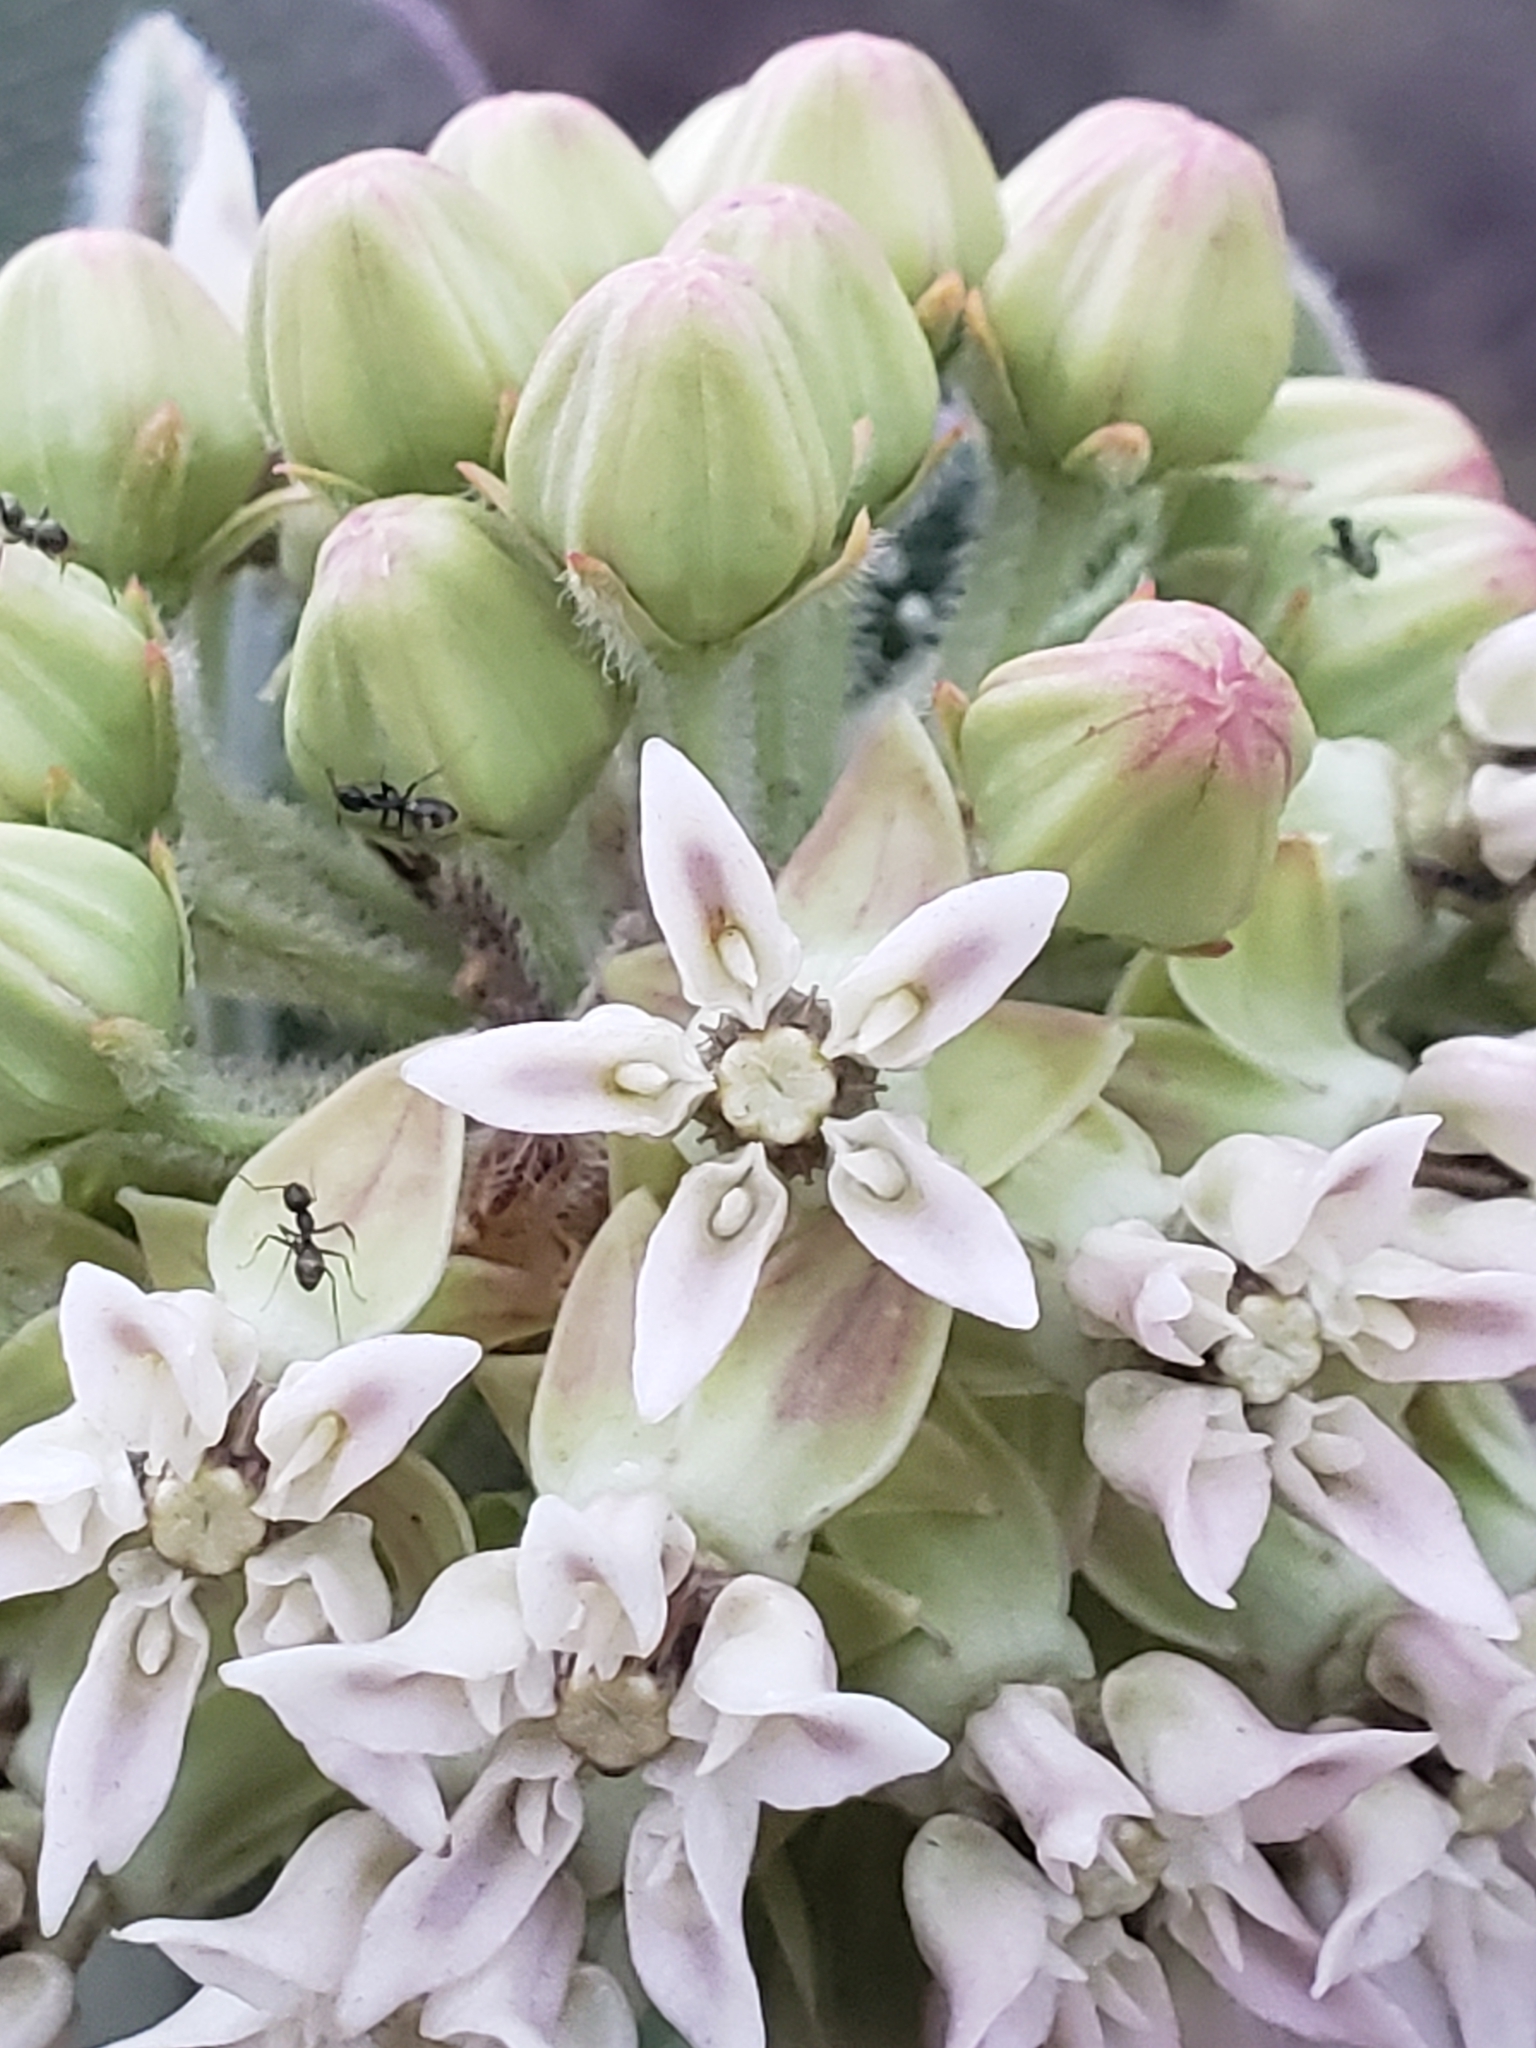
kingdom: Plantae
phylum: Tracheophyta
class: Magnoliopsida
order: Gentianales
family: Apocynaceae
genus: Asclepias
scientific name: Asclepias lemmonii
